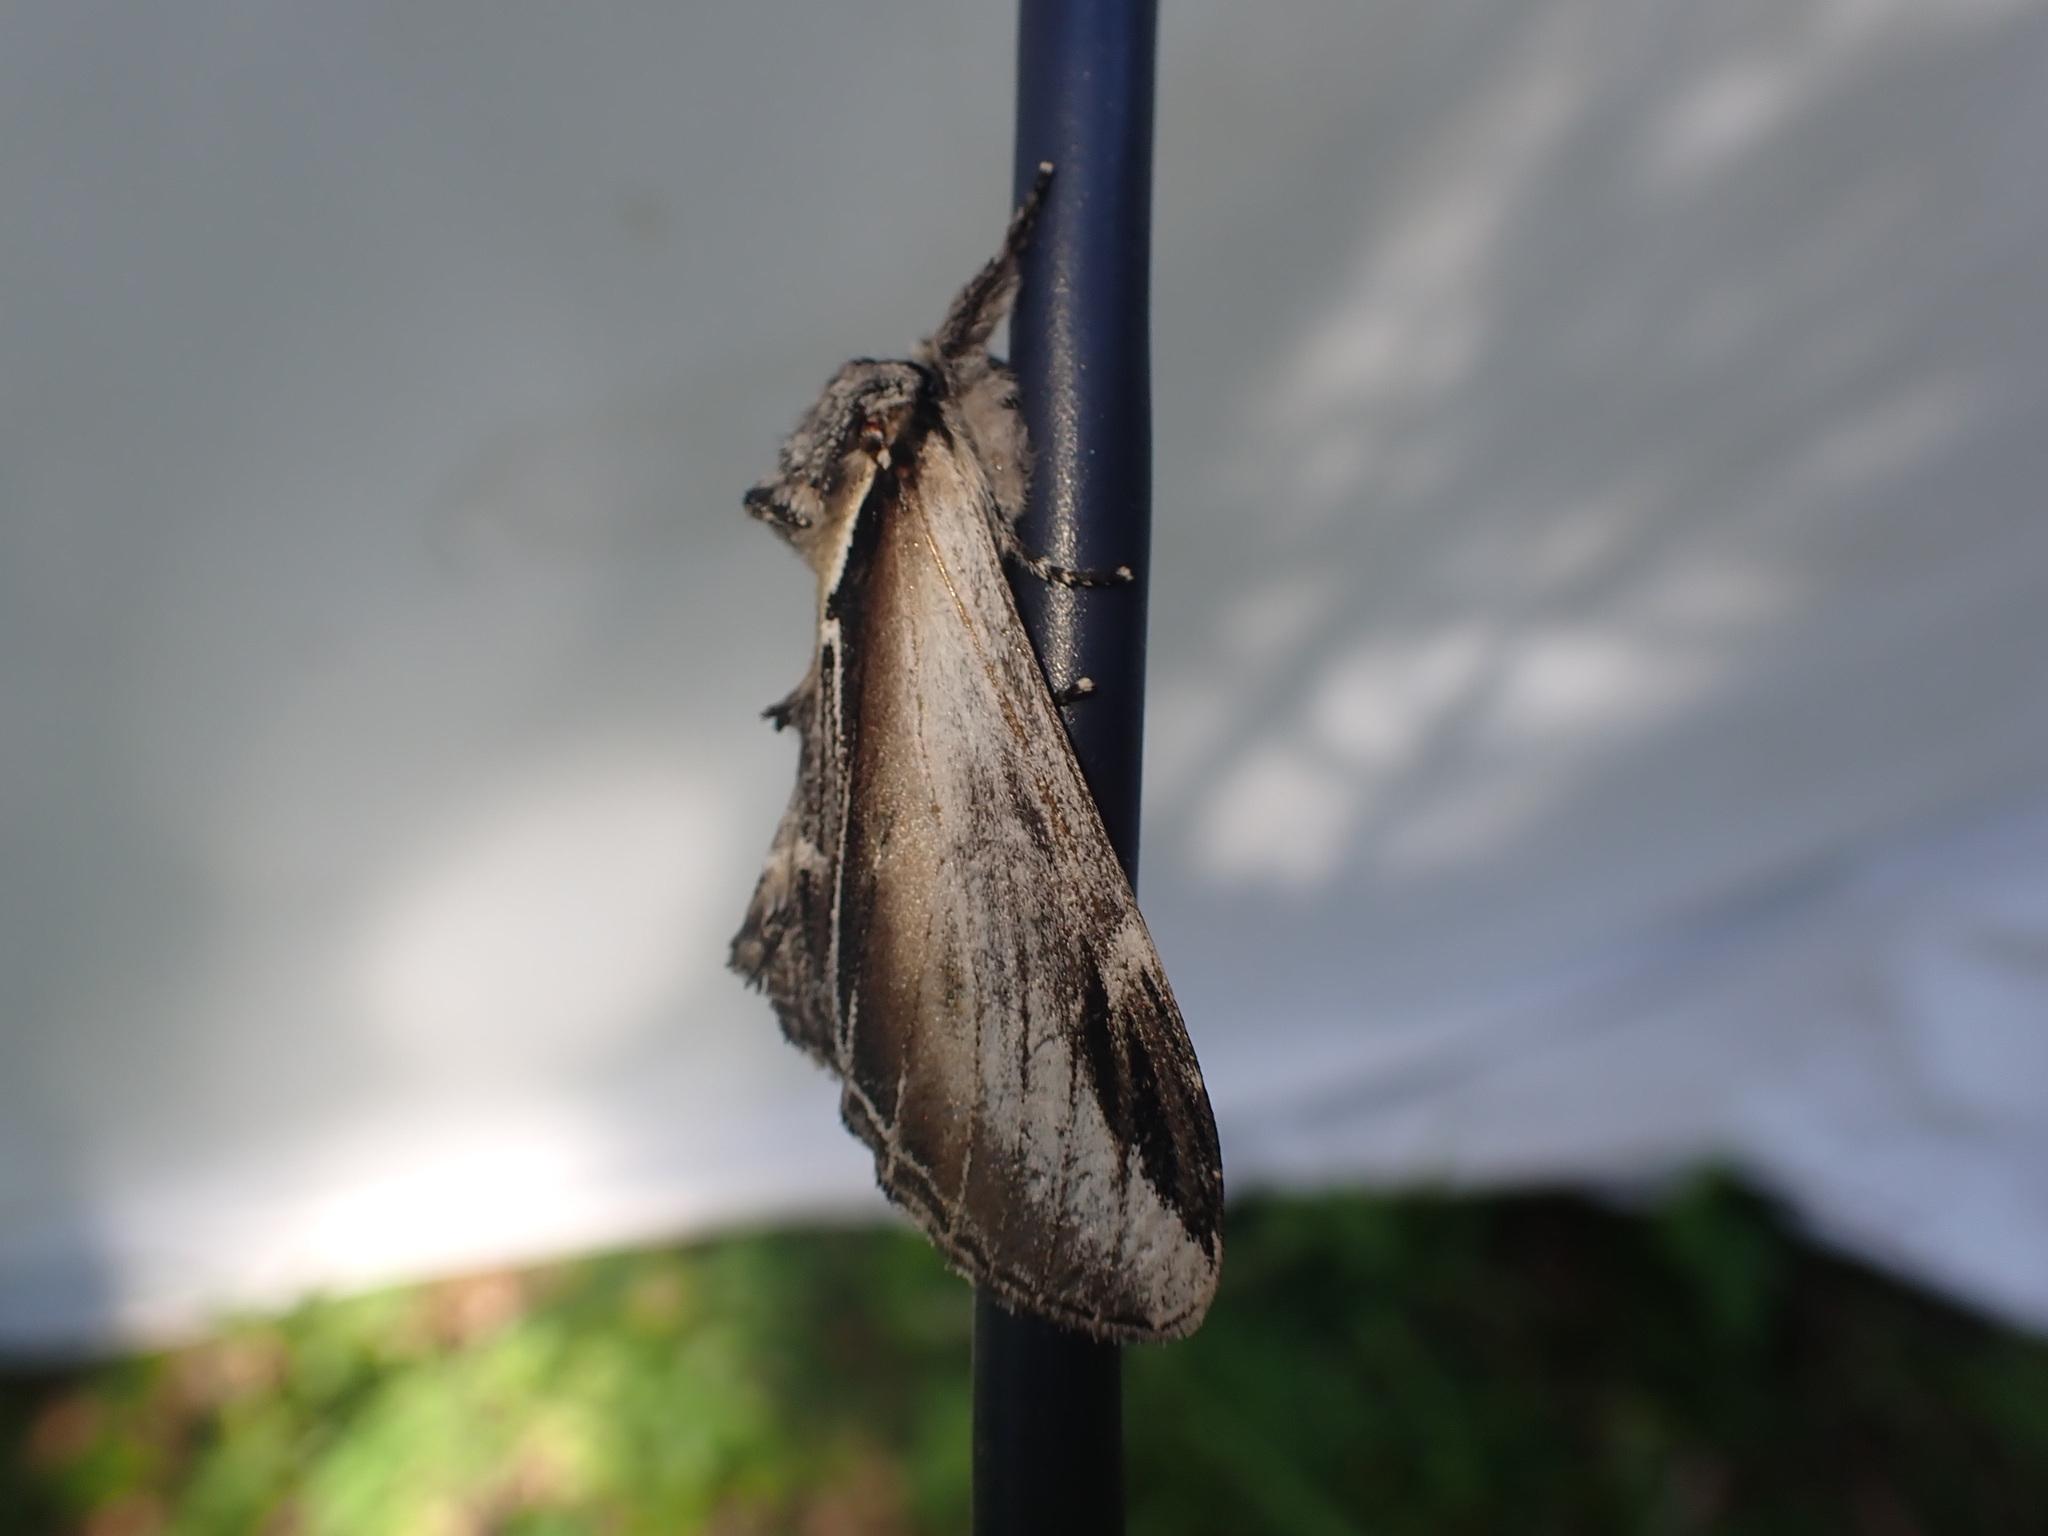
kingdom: Animalia
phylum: Arthropoda
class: Insecta
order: Lepidoptera
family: Notodontidae
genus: Pheosia
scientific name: Pheosia rimosa
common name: Black-rimmed prominent
